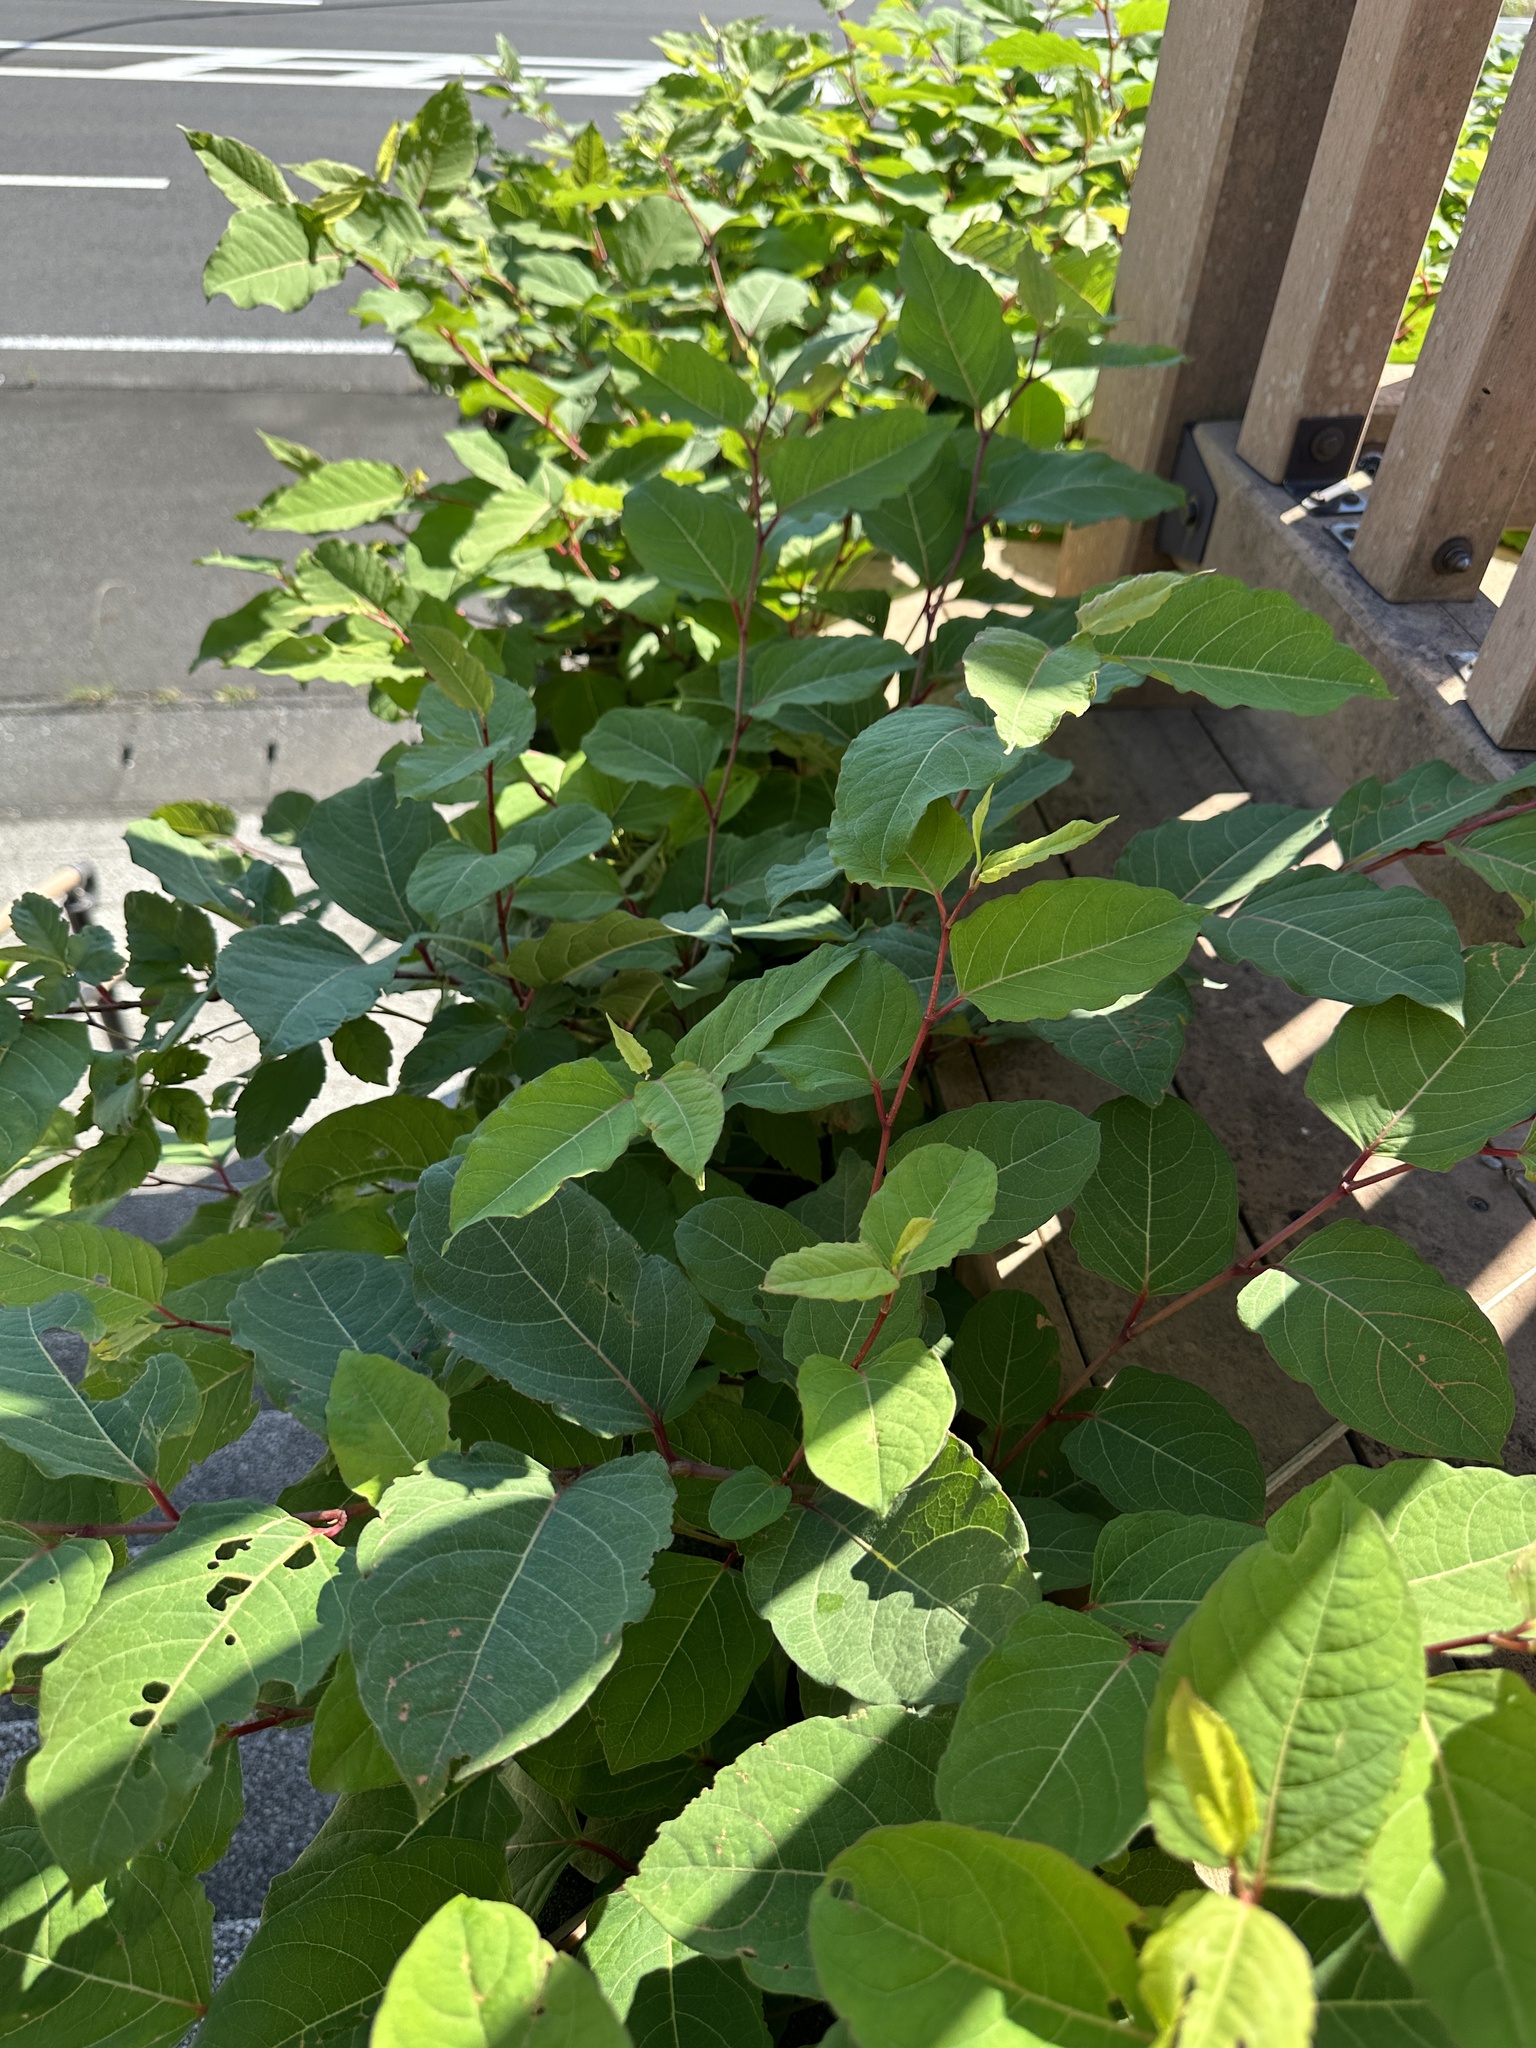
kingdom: Plantae
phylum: Tracheophyta
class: Magnoliopsida
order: Caryophyllales
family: Polygonaceae
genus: Reynoutria
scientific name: Reynoutria japonica
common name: Japanese knotweed
